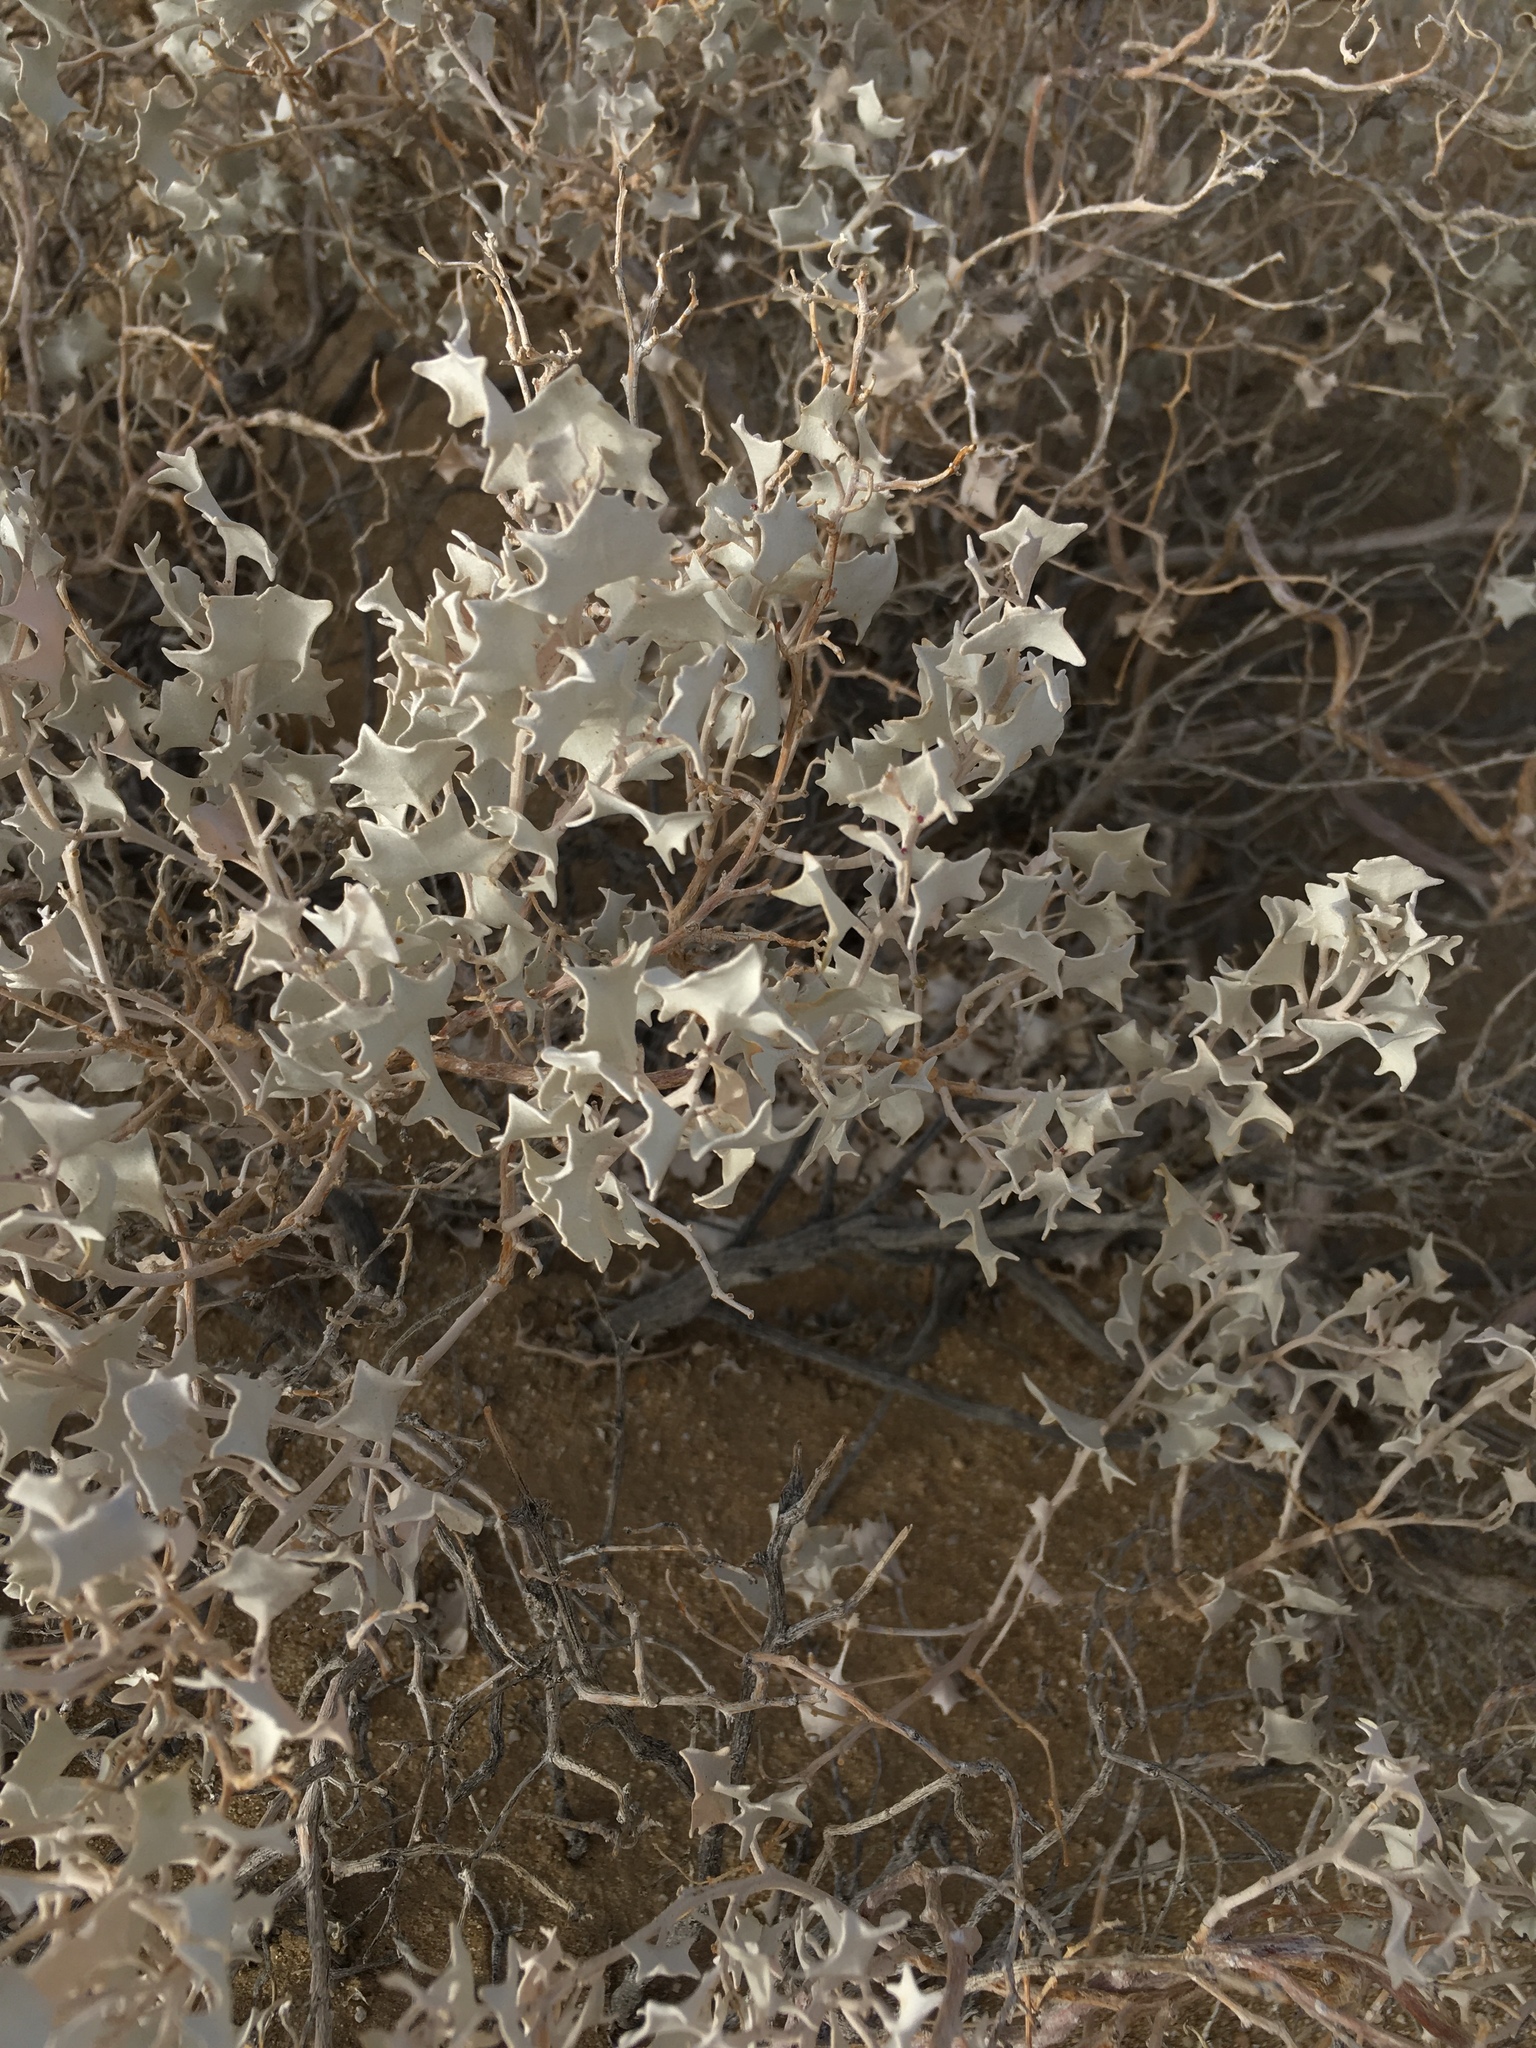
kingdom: Plantae
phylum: Tracheophyta
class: Magnoliopsida
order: Caryophyllales
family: Amaranthaceae
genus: Atriplex
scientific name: Atriplex hymenelytra
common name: Desert-holly
